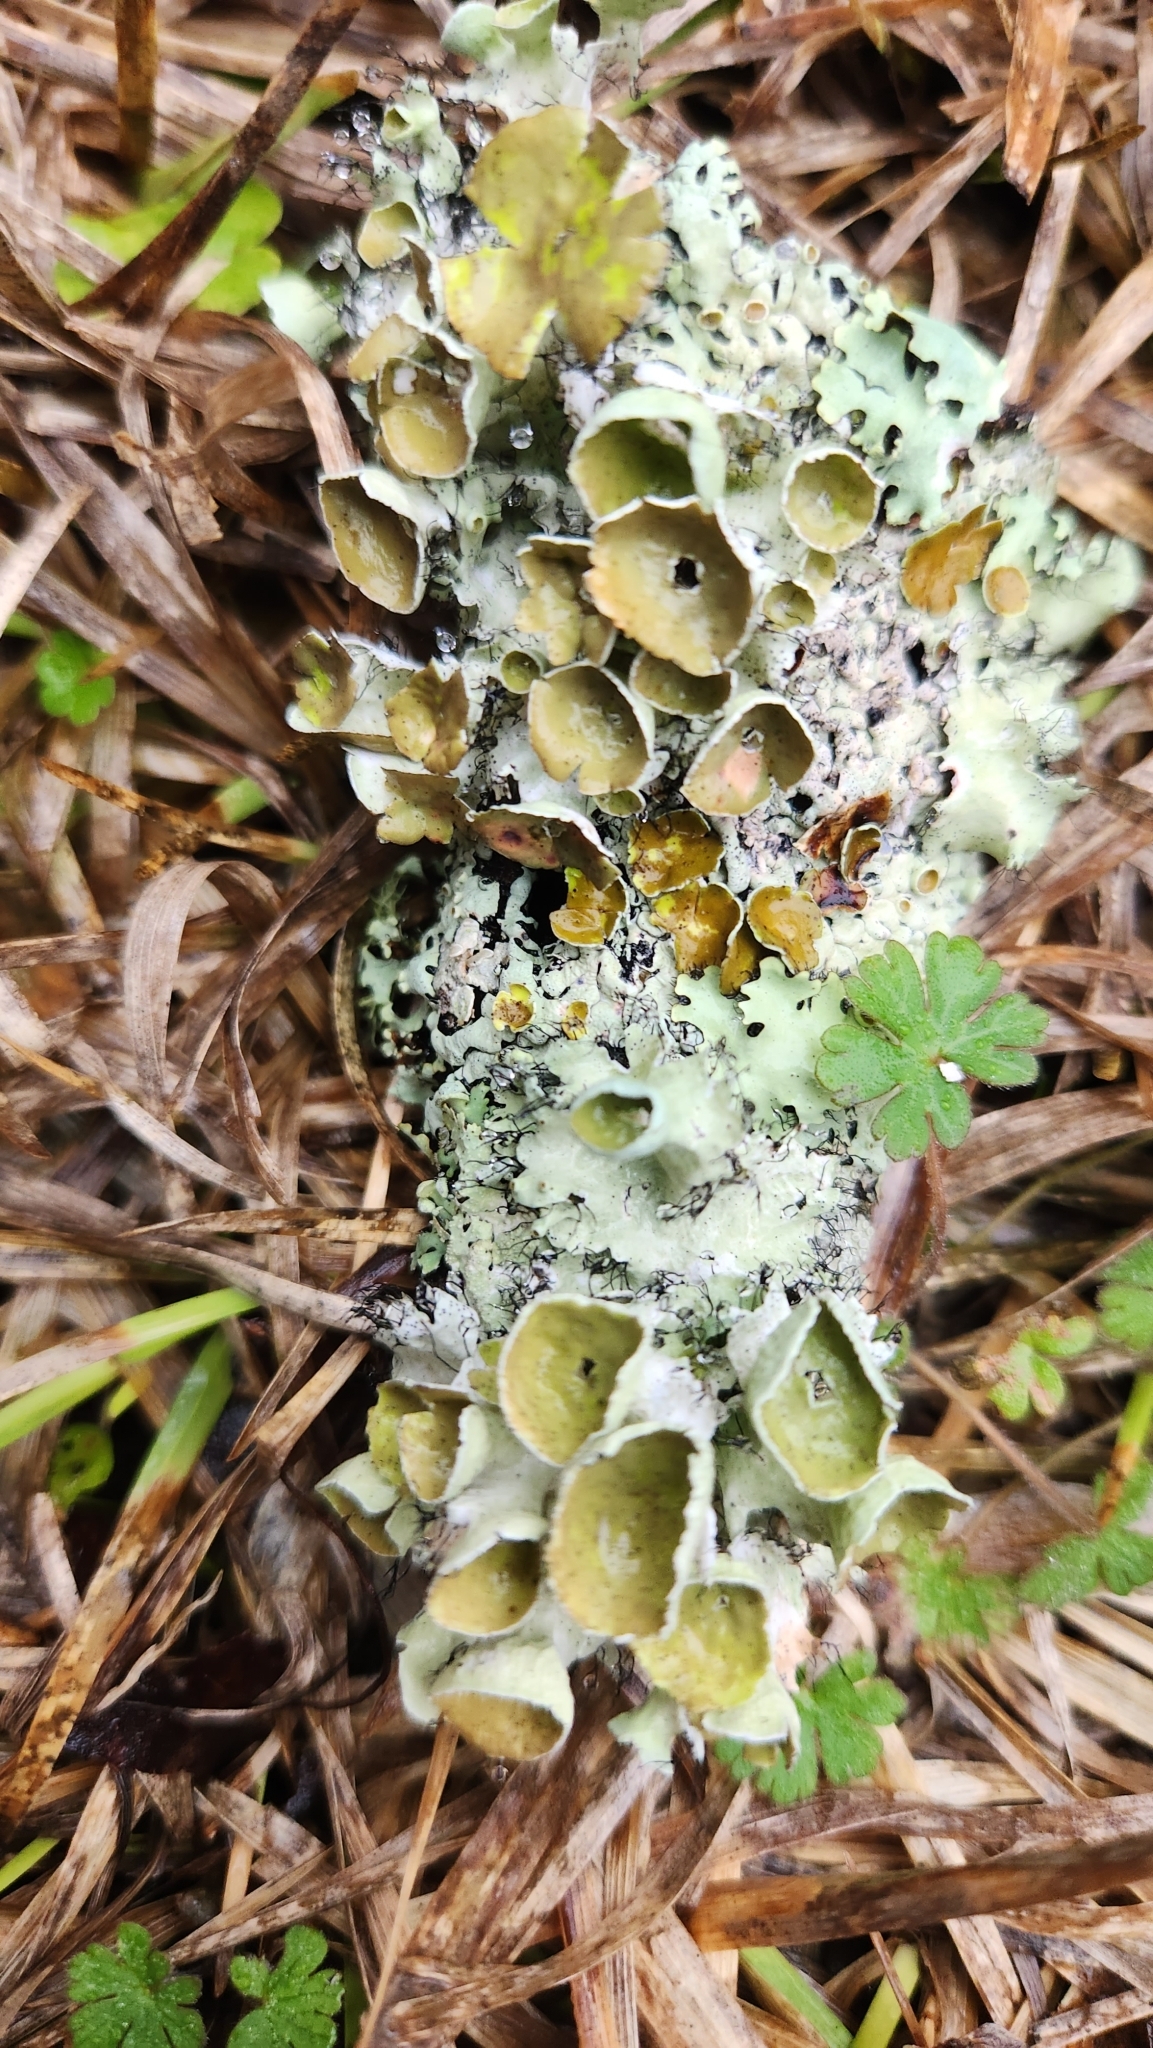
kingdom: Fungi
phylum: Ascomycota
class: Lecanoromycetes
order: Lecanorales
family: Parmeliaceae
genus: Parmotrema
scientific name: Parmotrema perforatum
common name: Perforated ruffle lichen
